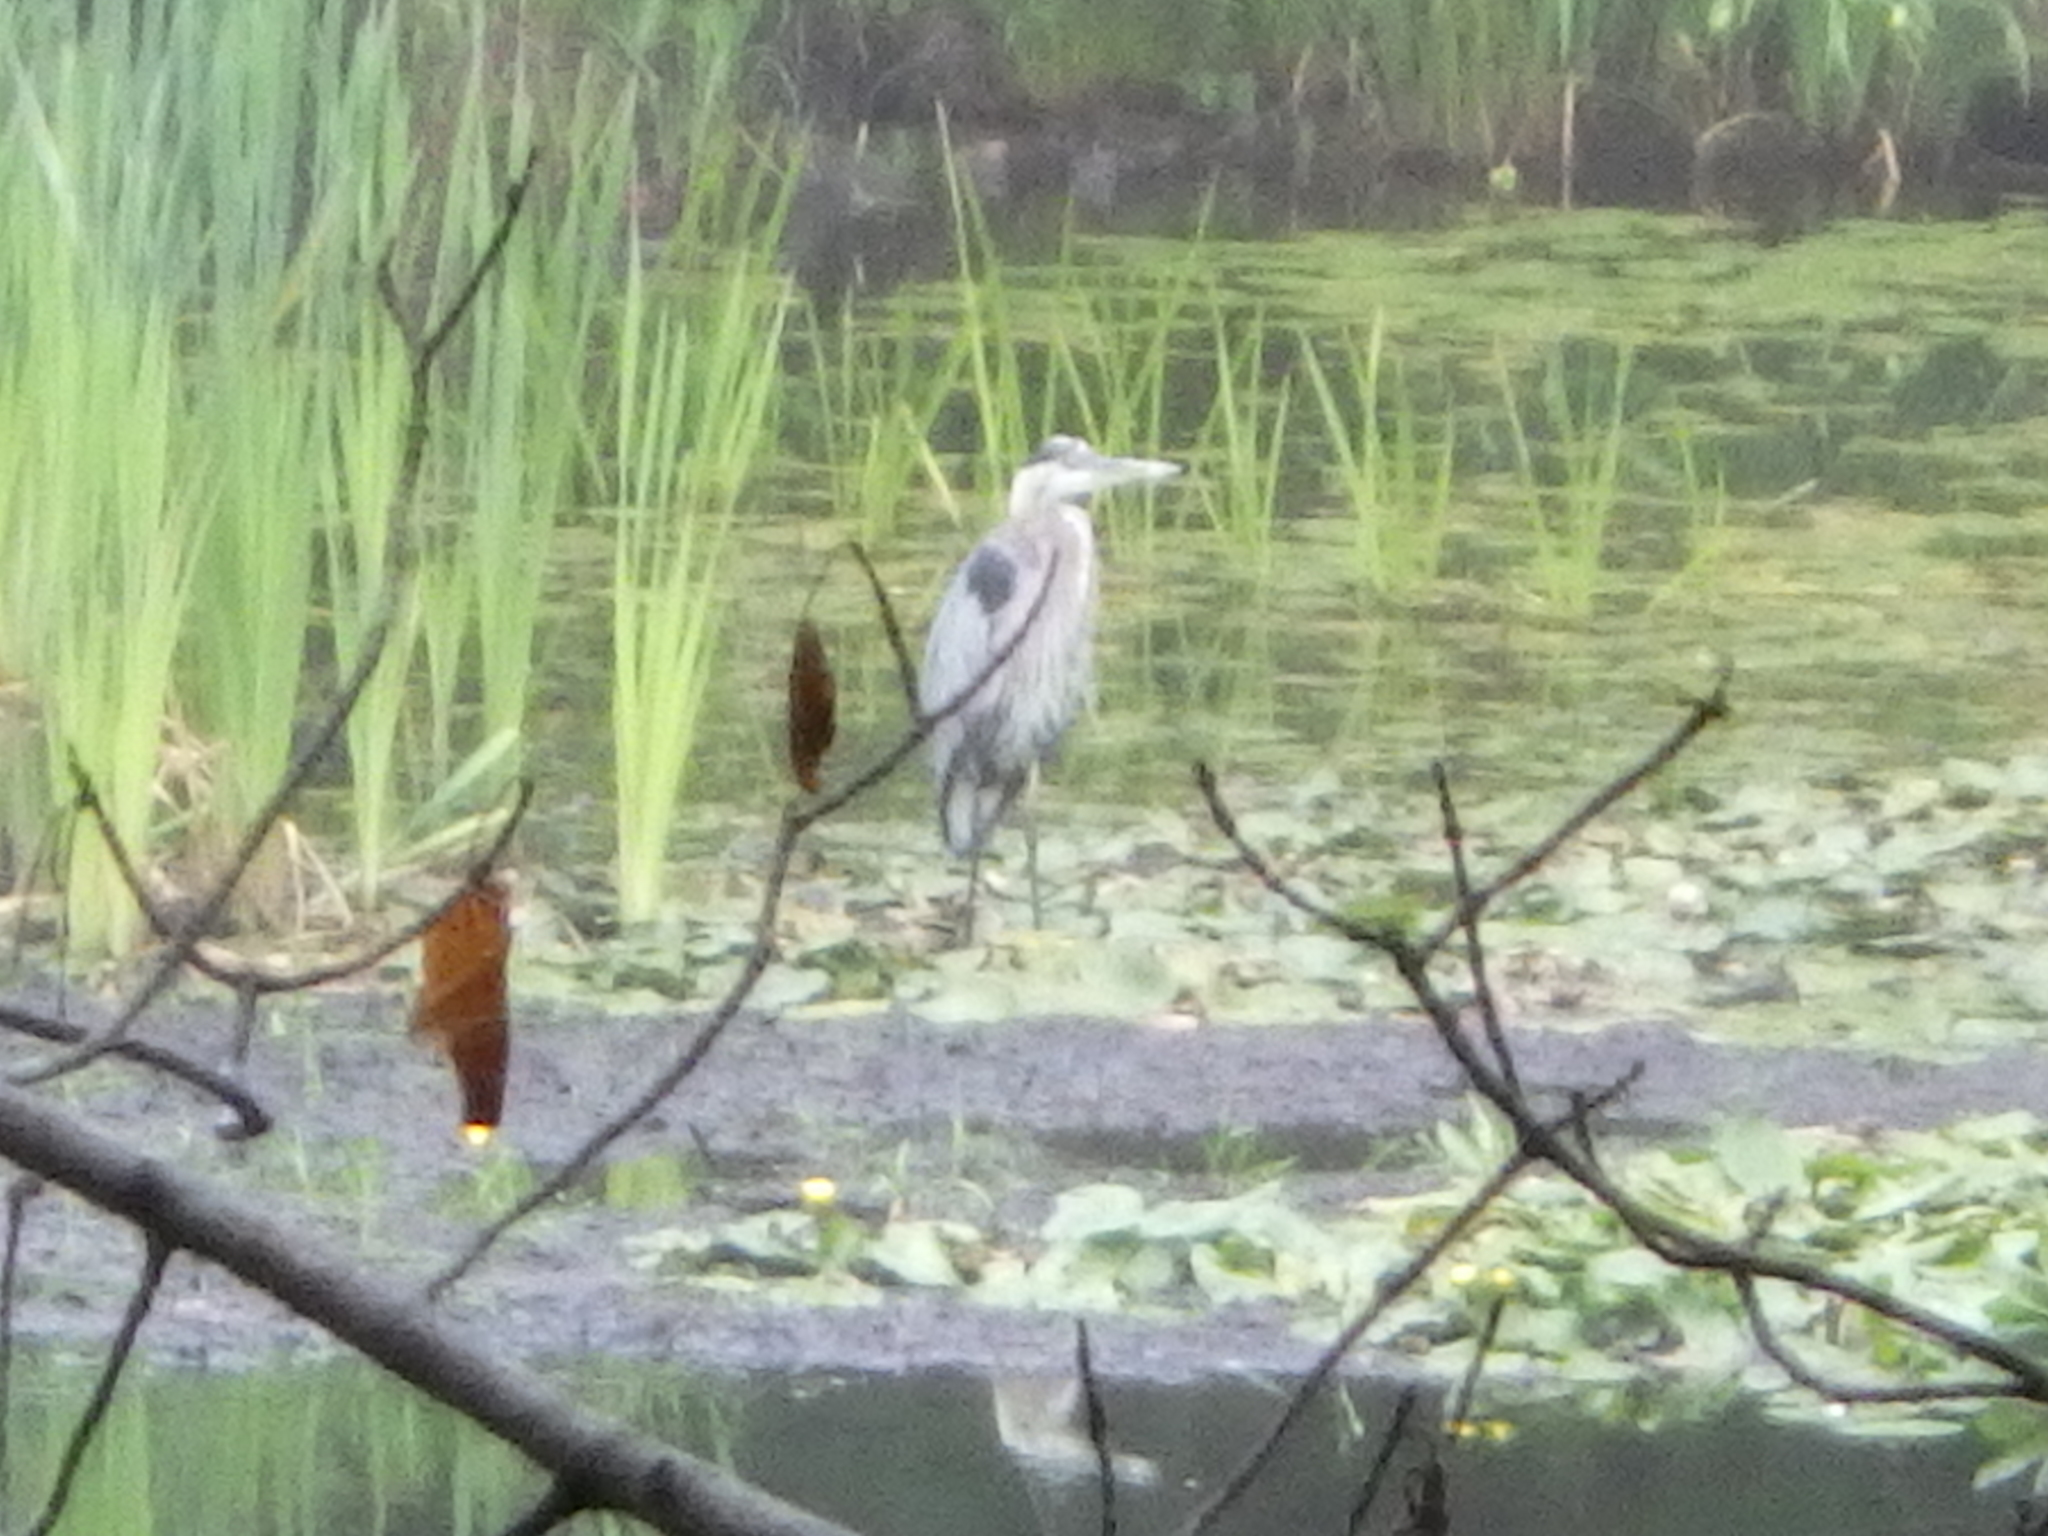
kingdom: Animalia
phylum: Chordata
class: Aves
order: Pelecaniformes
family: Ardeidae
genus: Ardea
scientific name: Ardea herodias
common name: Great blue heron
